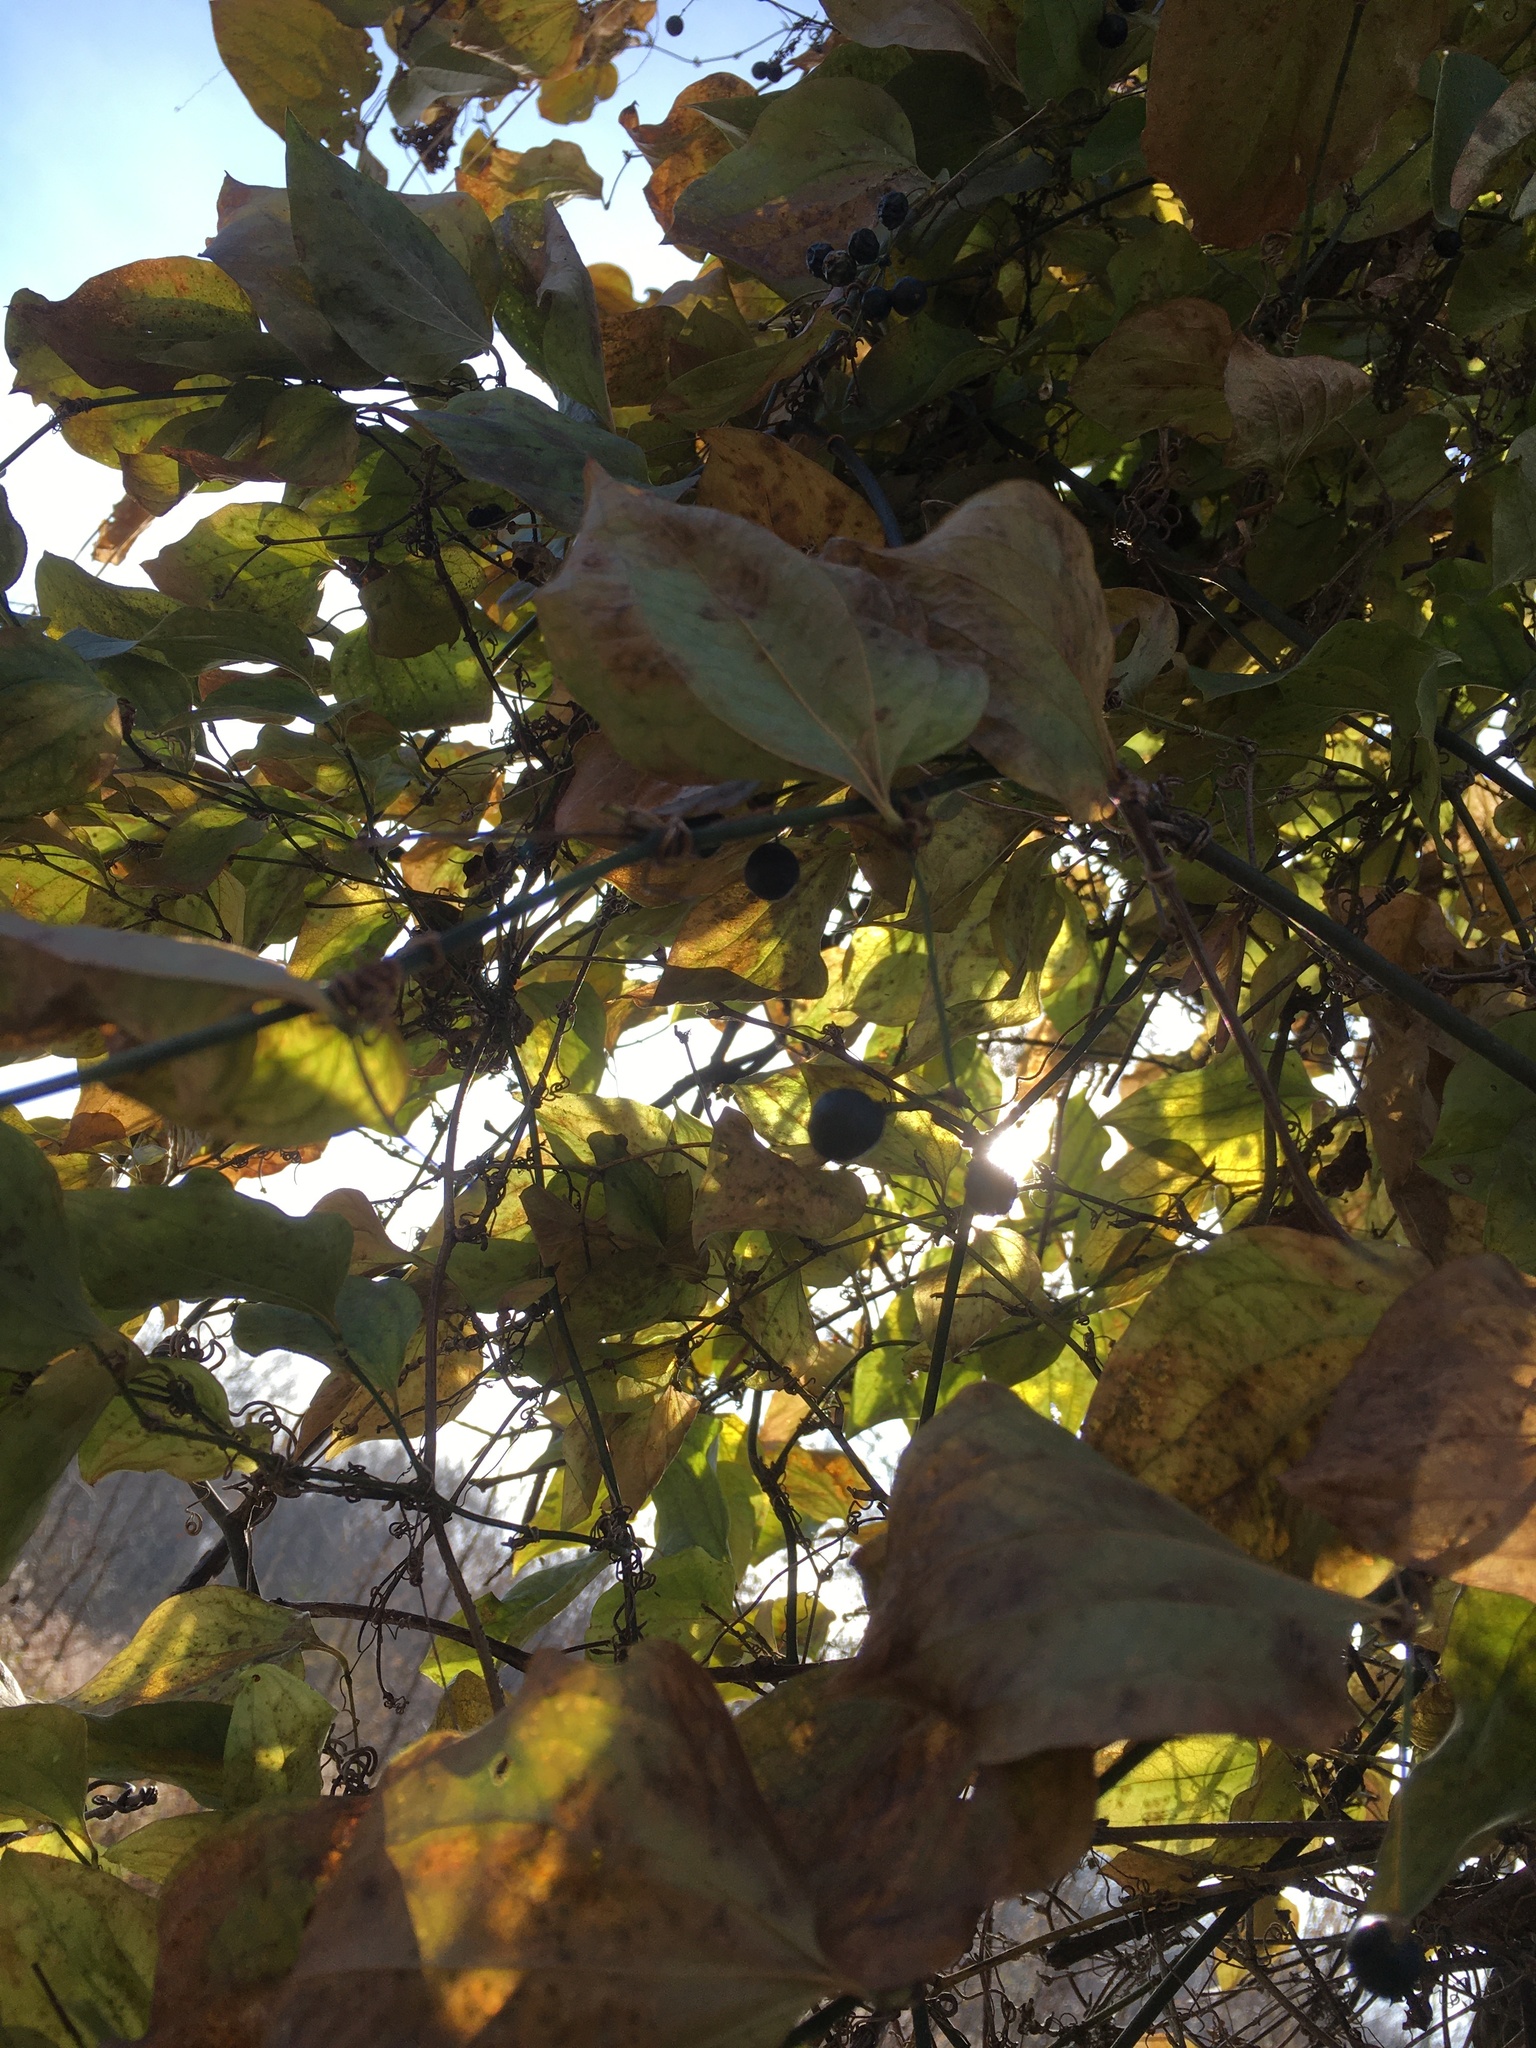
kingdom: Plantae
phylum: Tracheophyta
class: Liliopsida
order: Liliales
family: Smilacaceae
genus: Smilax
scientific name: Smilax tamnoides
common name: Hellfetter
